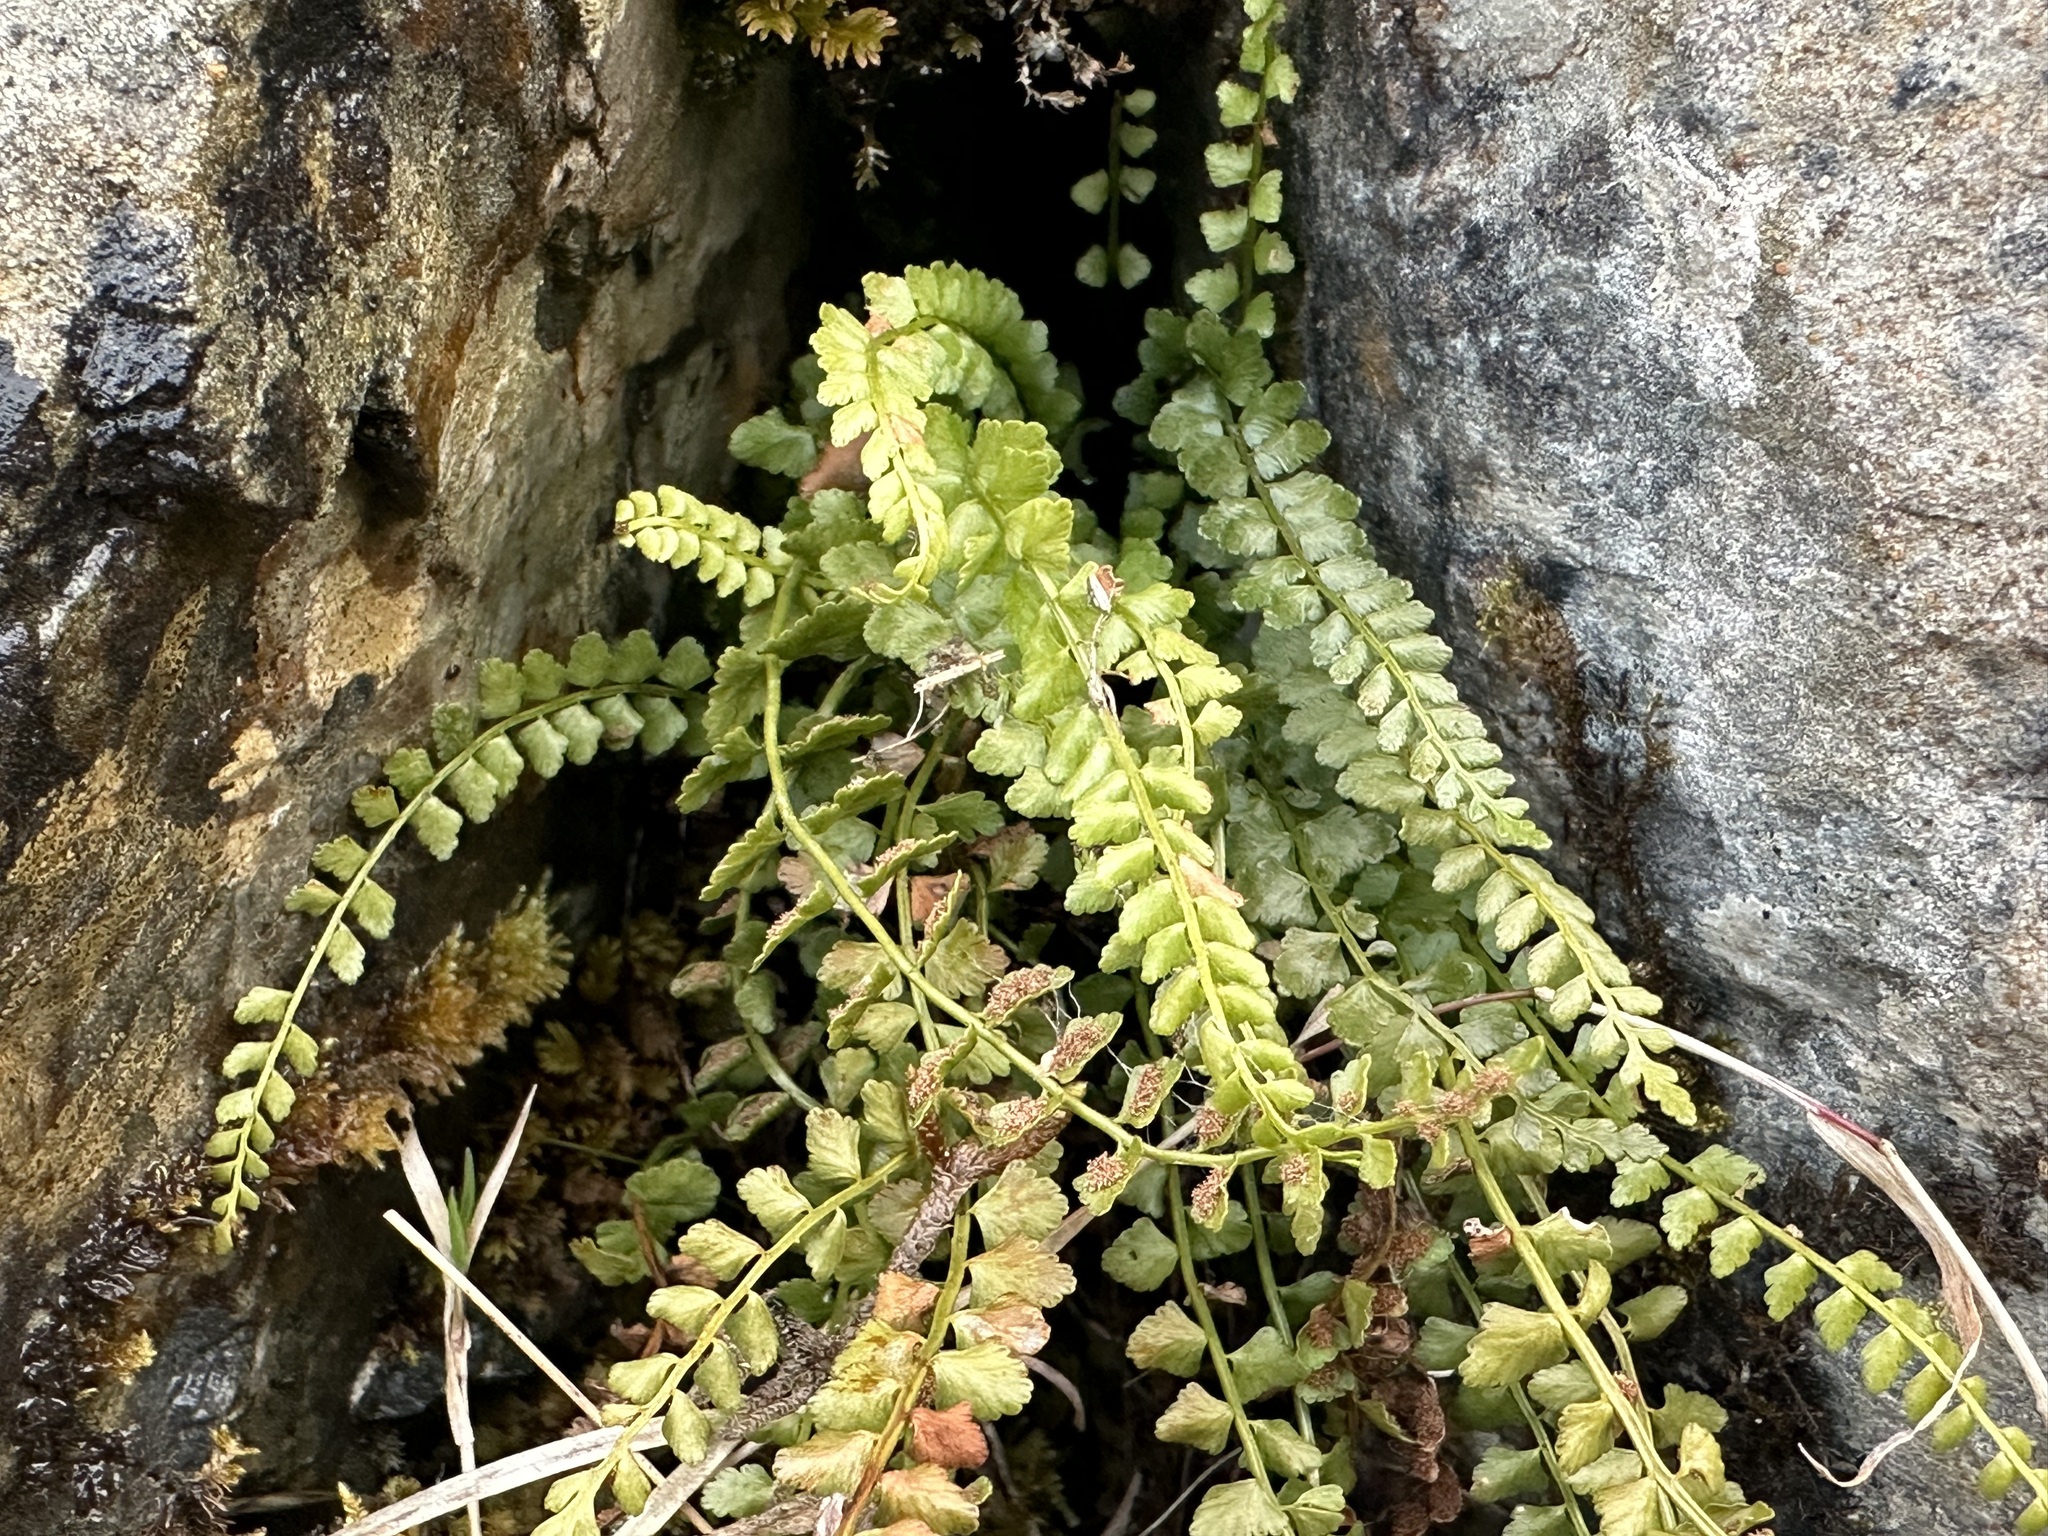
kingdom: Plantae
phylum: Tracheophyta
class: Polypodiopsida
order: Polypodiales
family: Aspleniaceae
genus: Asplenium
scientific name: Asplenium viride
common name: Green spleenwort
